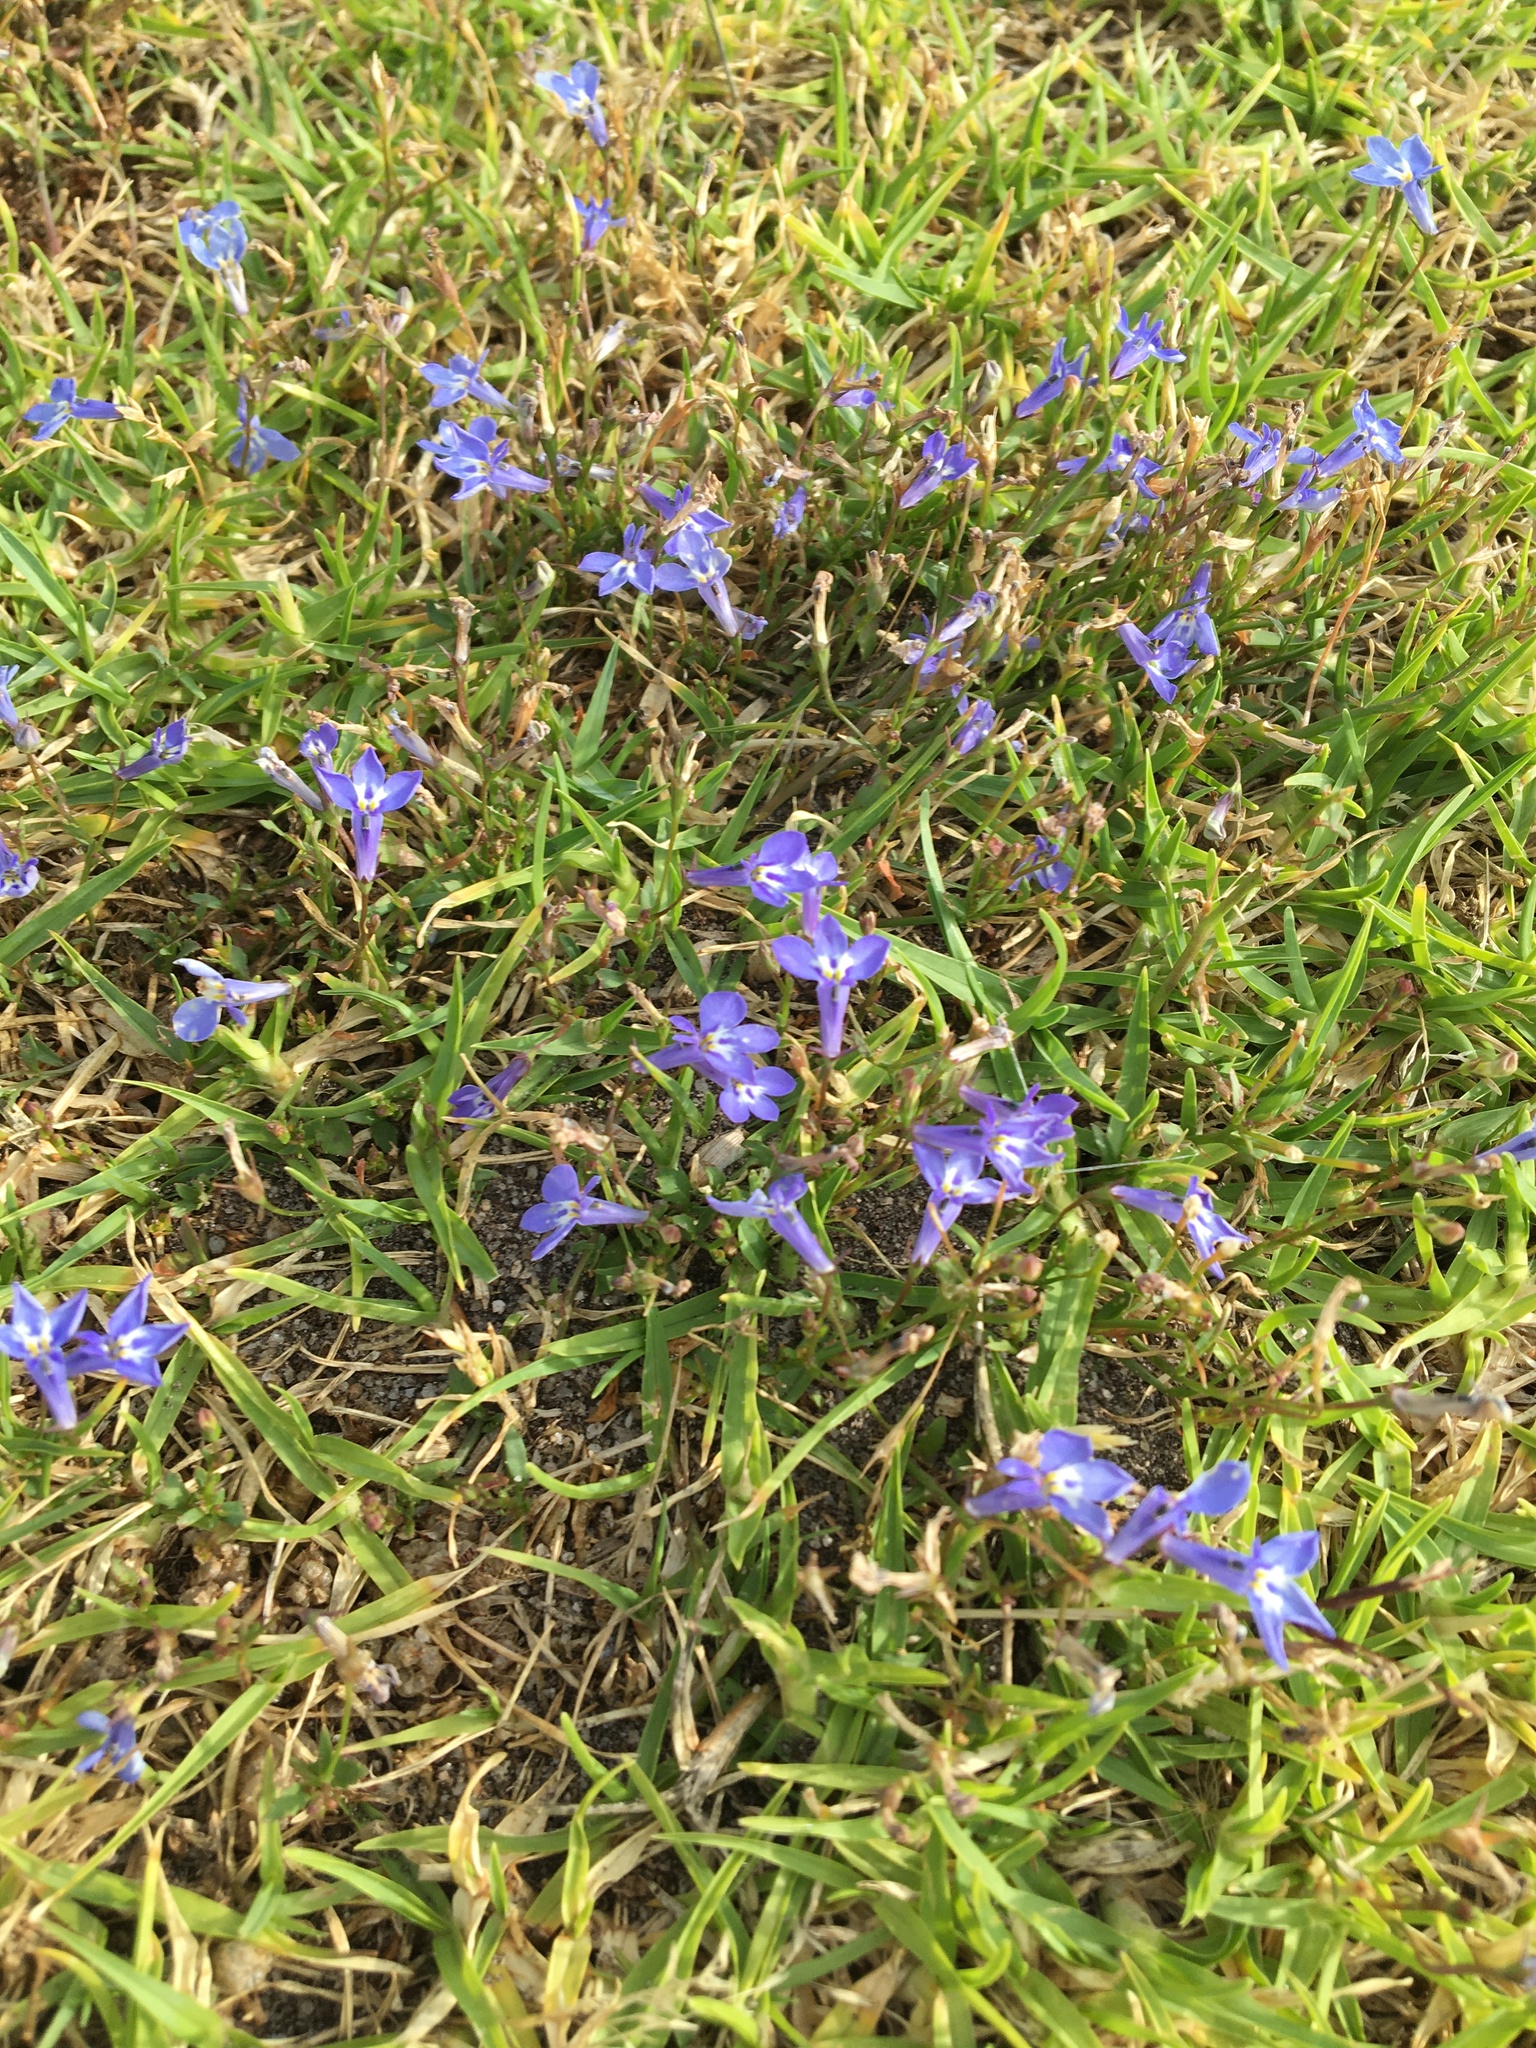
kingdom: Plantae
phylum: Tracheophyta
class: Magnoliopsida
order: Asterales
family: Campanulaceae
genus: Lobelia
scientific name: Lobelia erinus
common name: Edging lobelia
